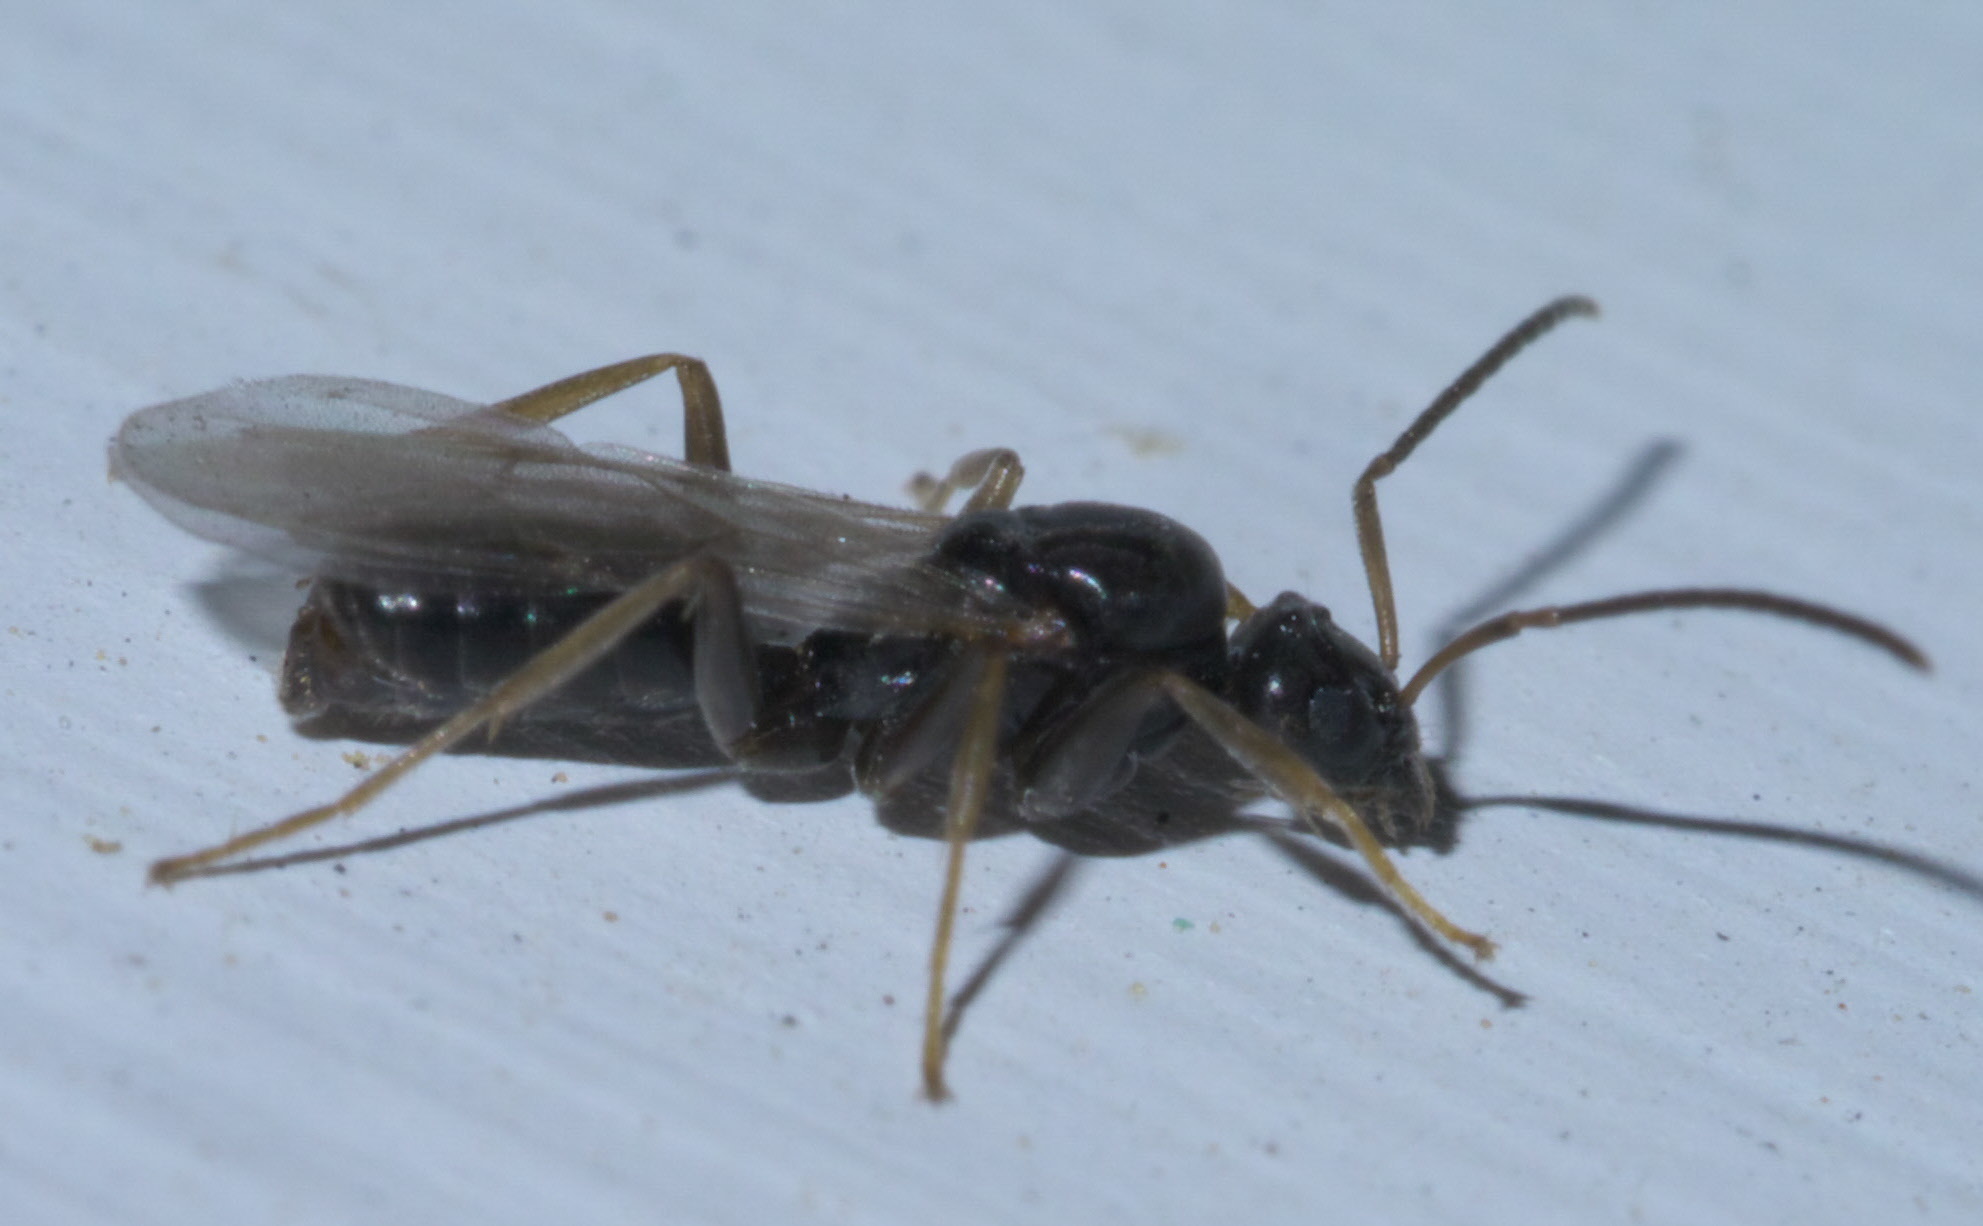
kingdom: Animalia
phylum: Arthropoda
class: Insecta
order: Hymenoptera
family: Formicidae
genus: Tapinoma
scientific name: Tapinoma sessile
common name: Odorous house ant
